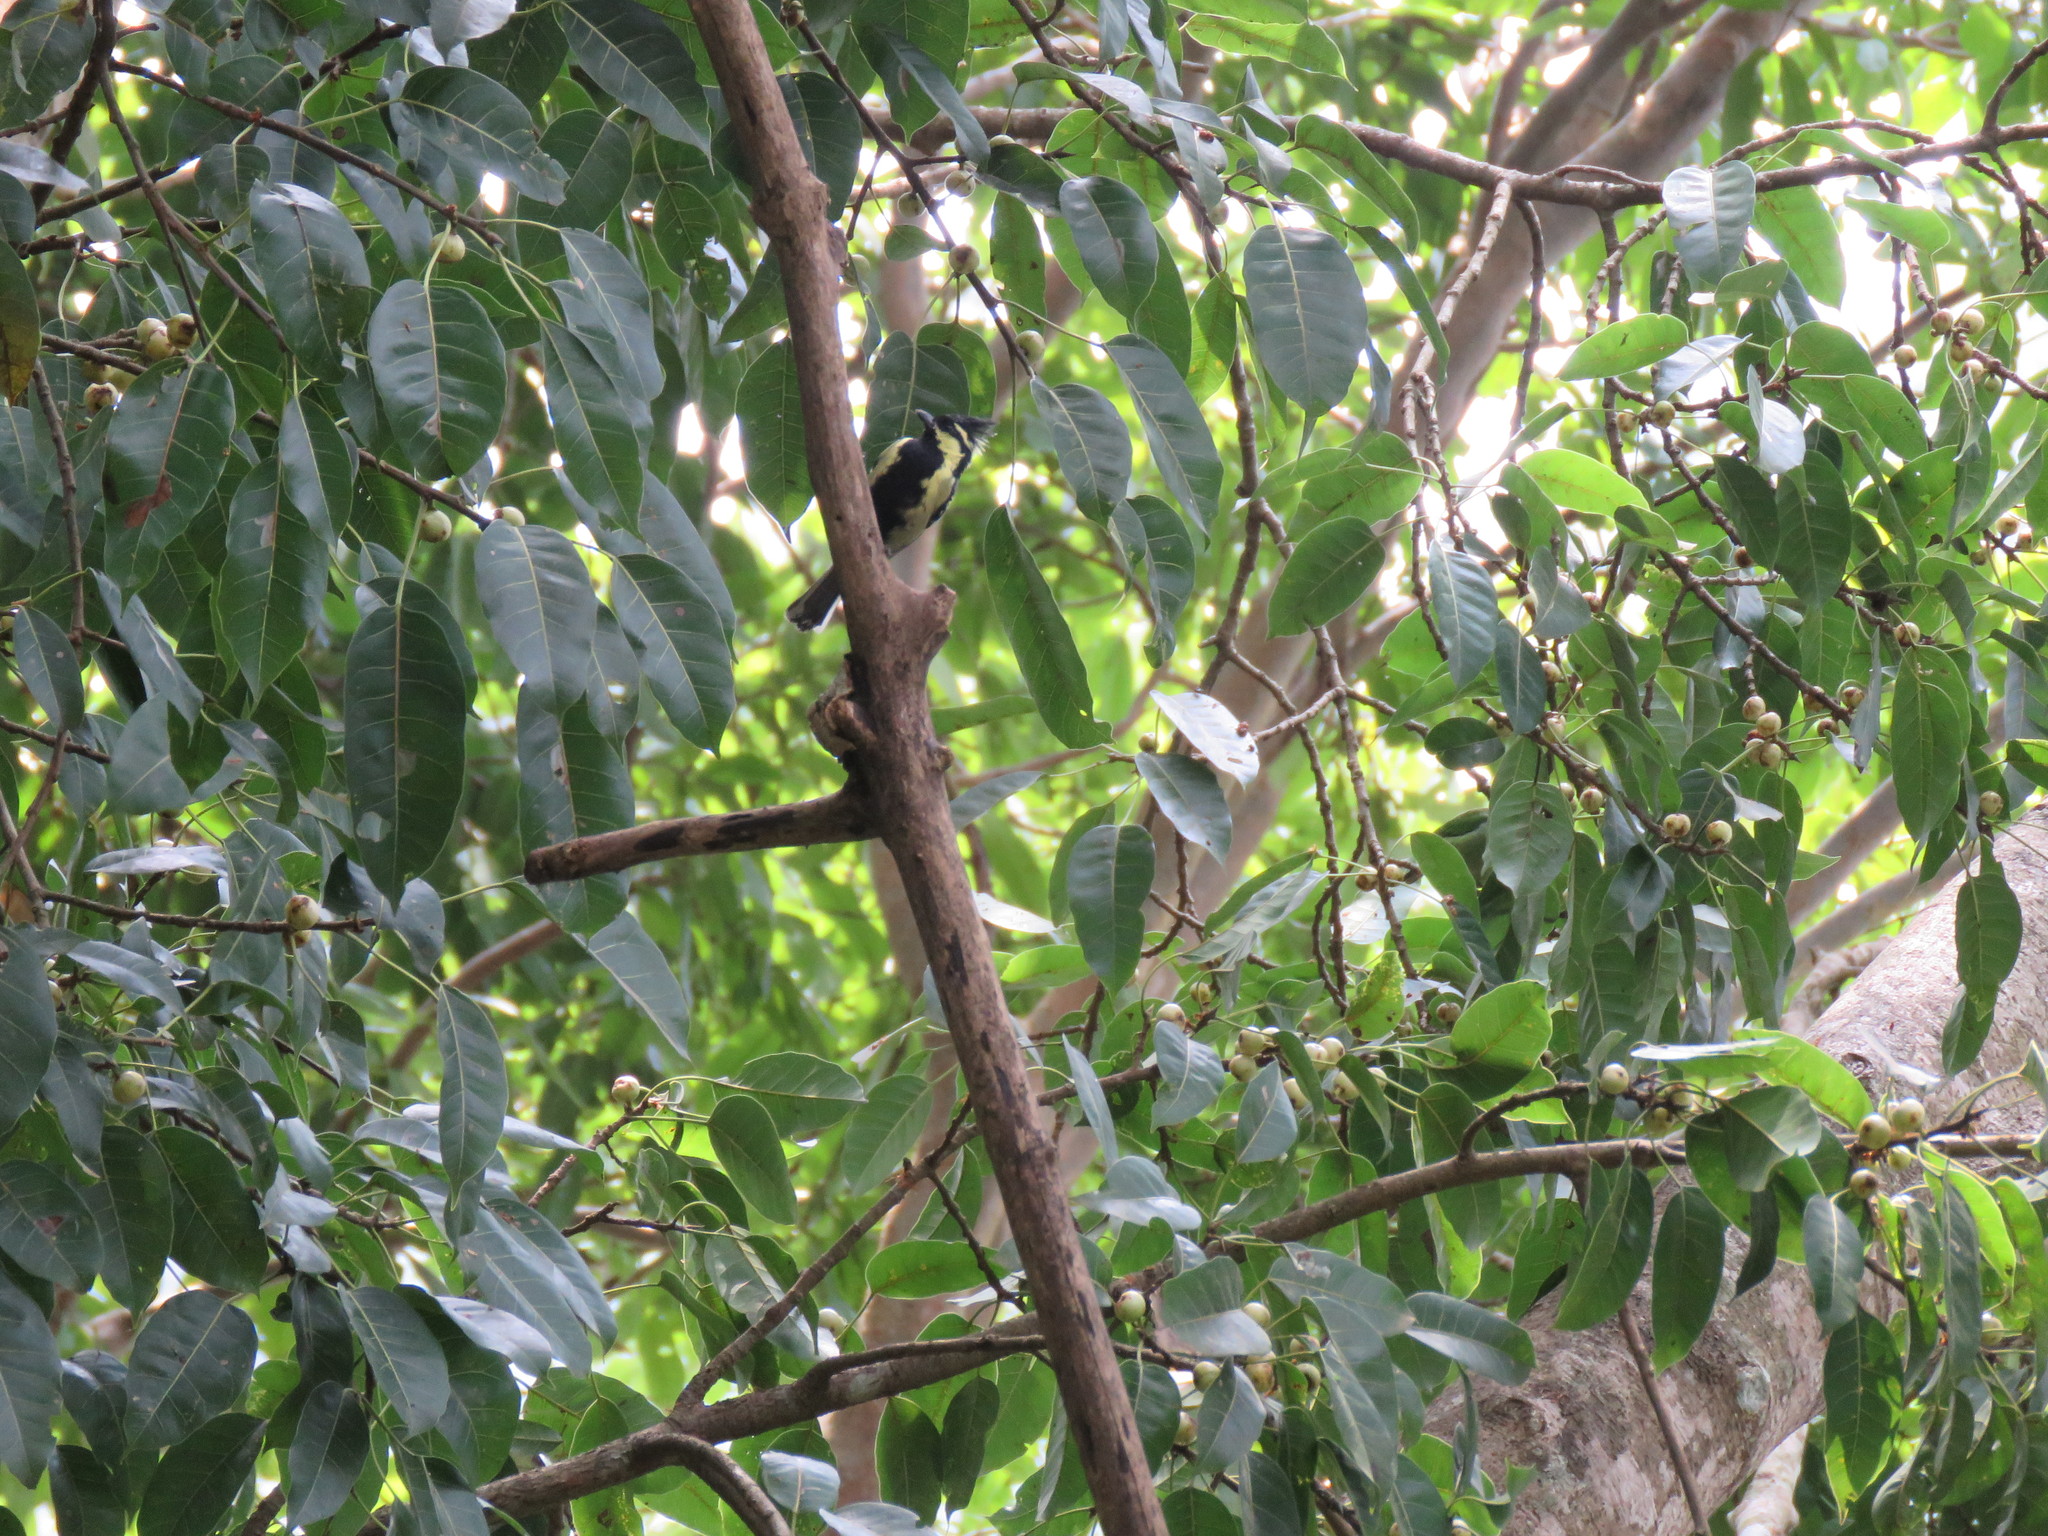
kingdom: Animalia
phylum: Chordata
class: Aves
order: Passeriformes
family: Paridae
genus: Parus
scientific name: Parus aplonotus
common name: Indian black-lored tit
